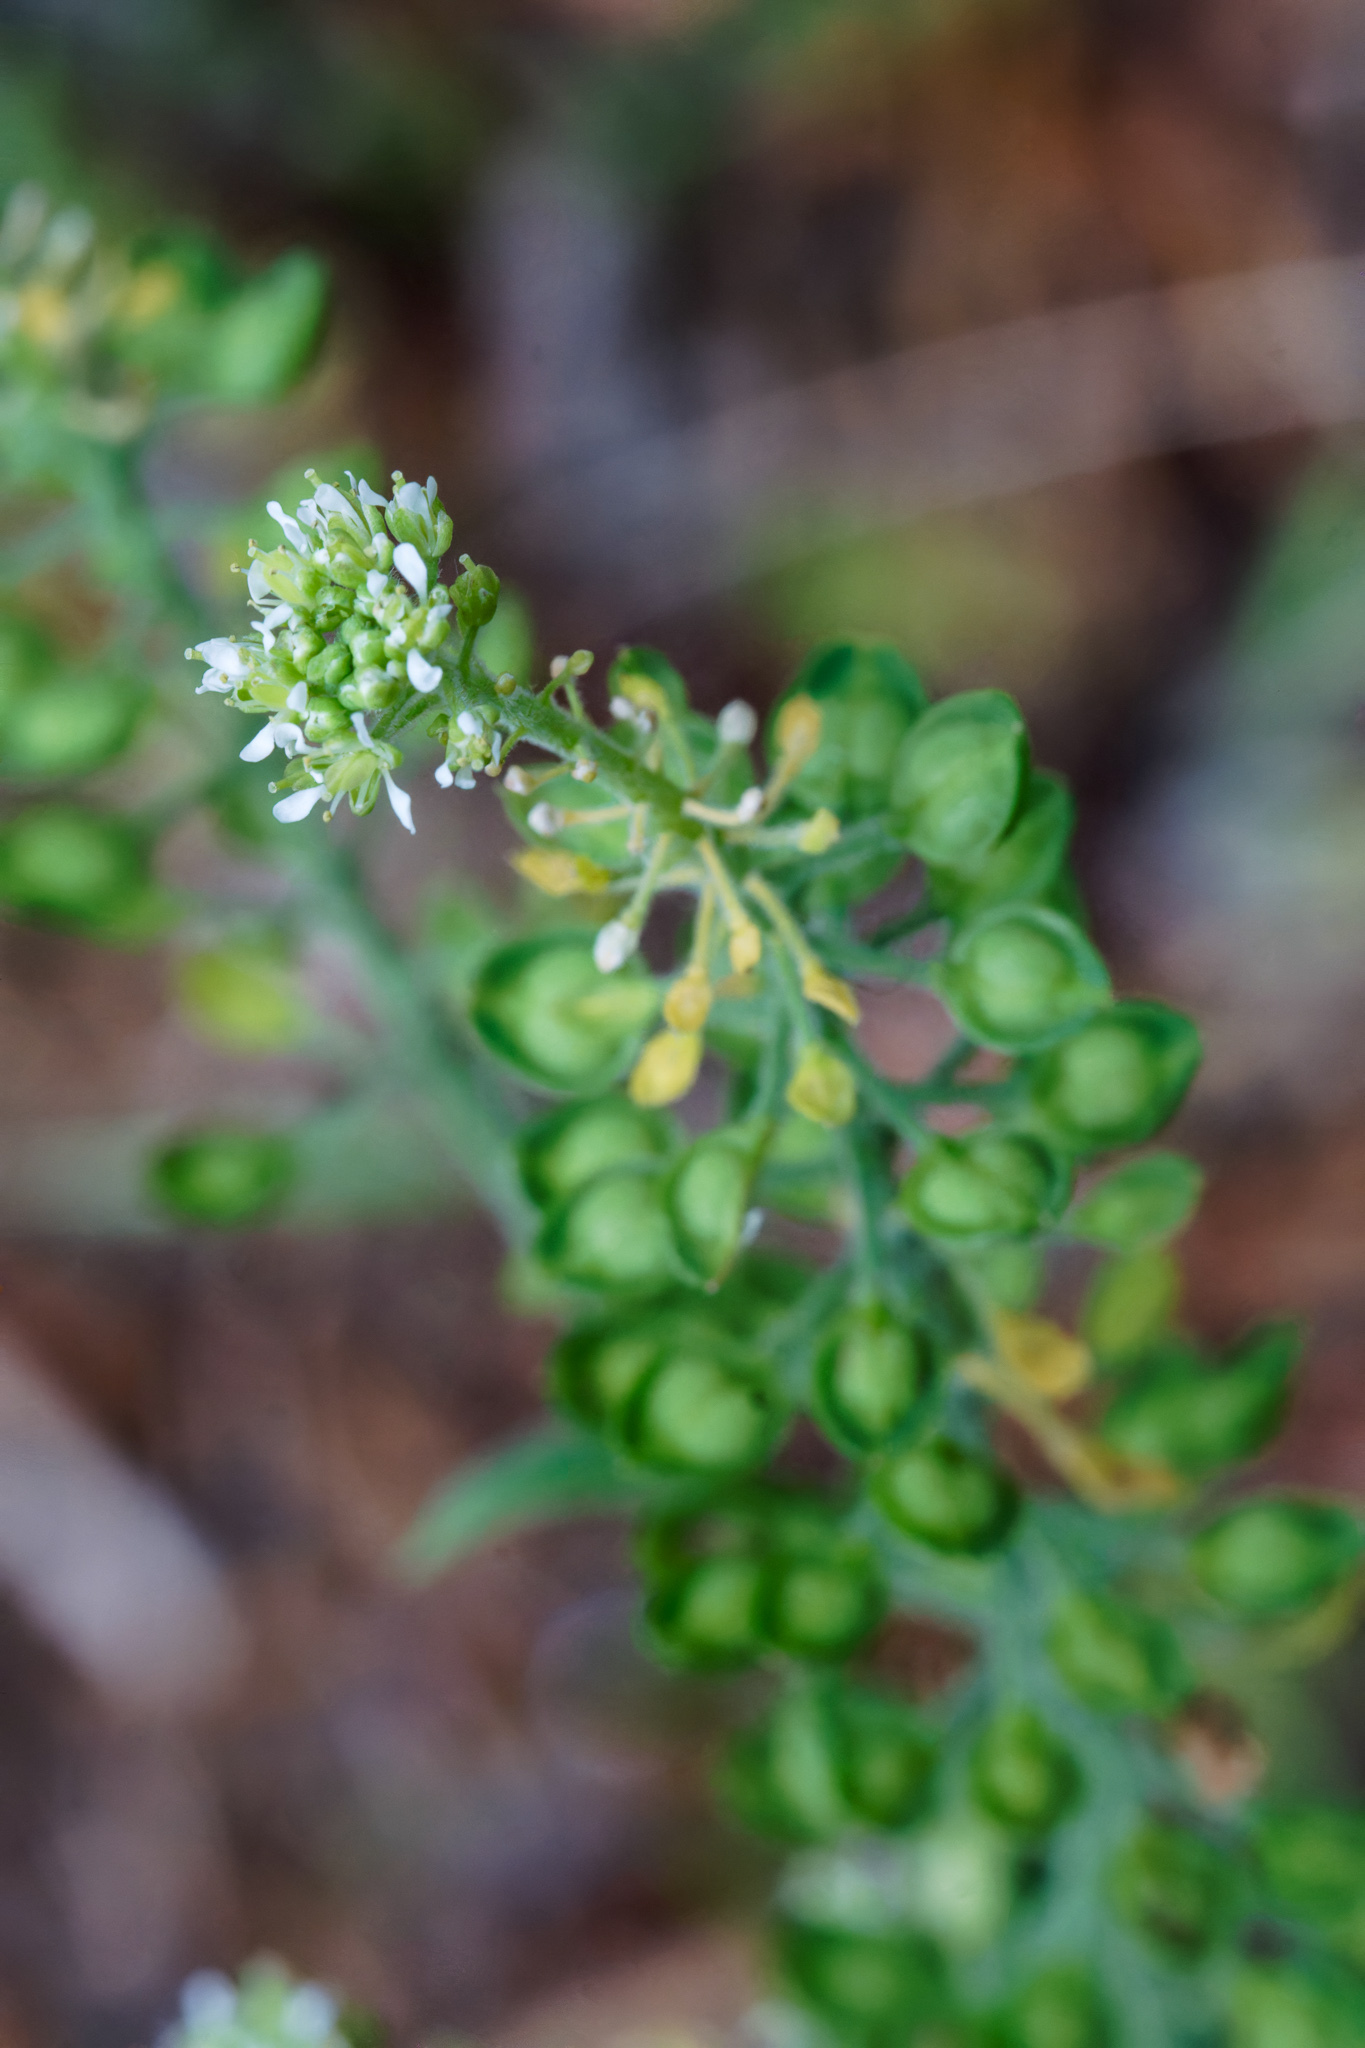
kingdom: Plantae
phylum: Tracheophyta
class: Magnoliopsida
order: Brassicales
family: Brassicaceae
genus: Lepidium
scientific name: Lepidium campestre
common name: Field pepperwort
